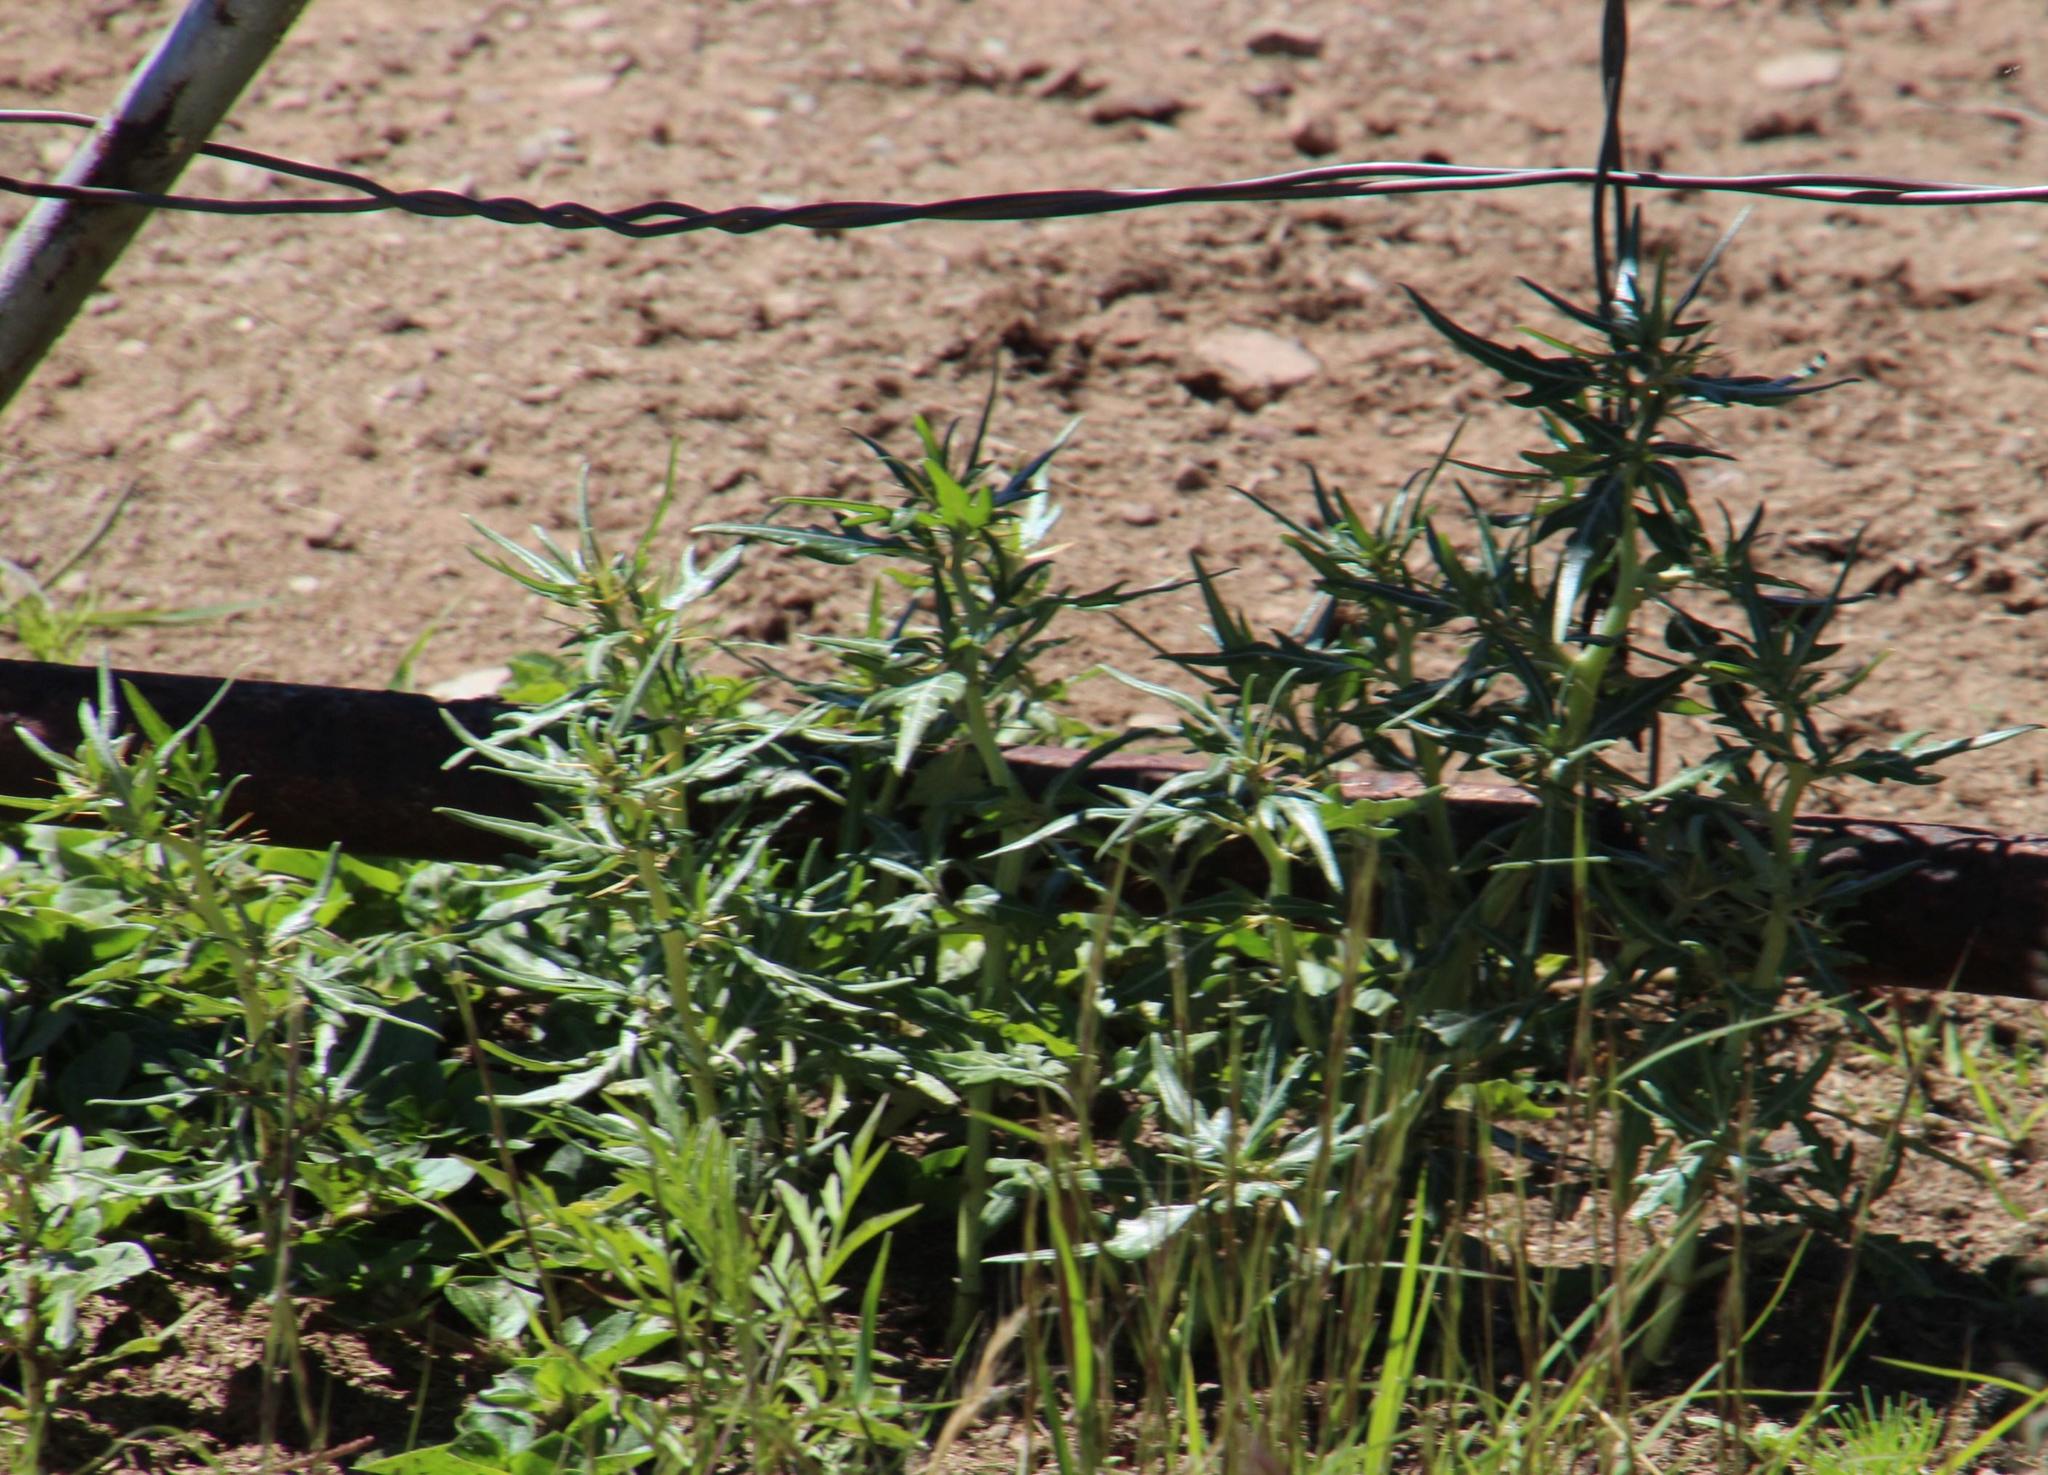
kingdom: Plantae
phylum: Tracheophyta
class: Magnoliopsida
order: Asterales
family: Asteraceae
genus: Xanthium
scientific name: Xanthium spinosum
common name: Spiny cocklebur
